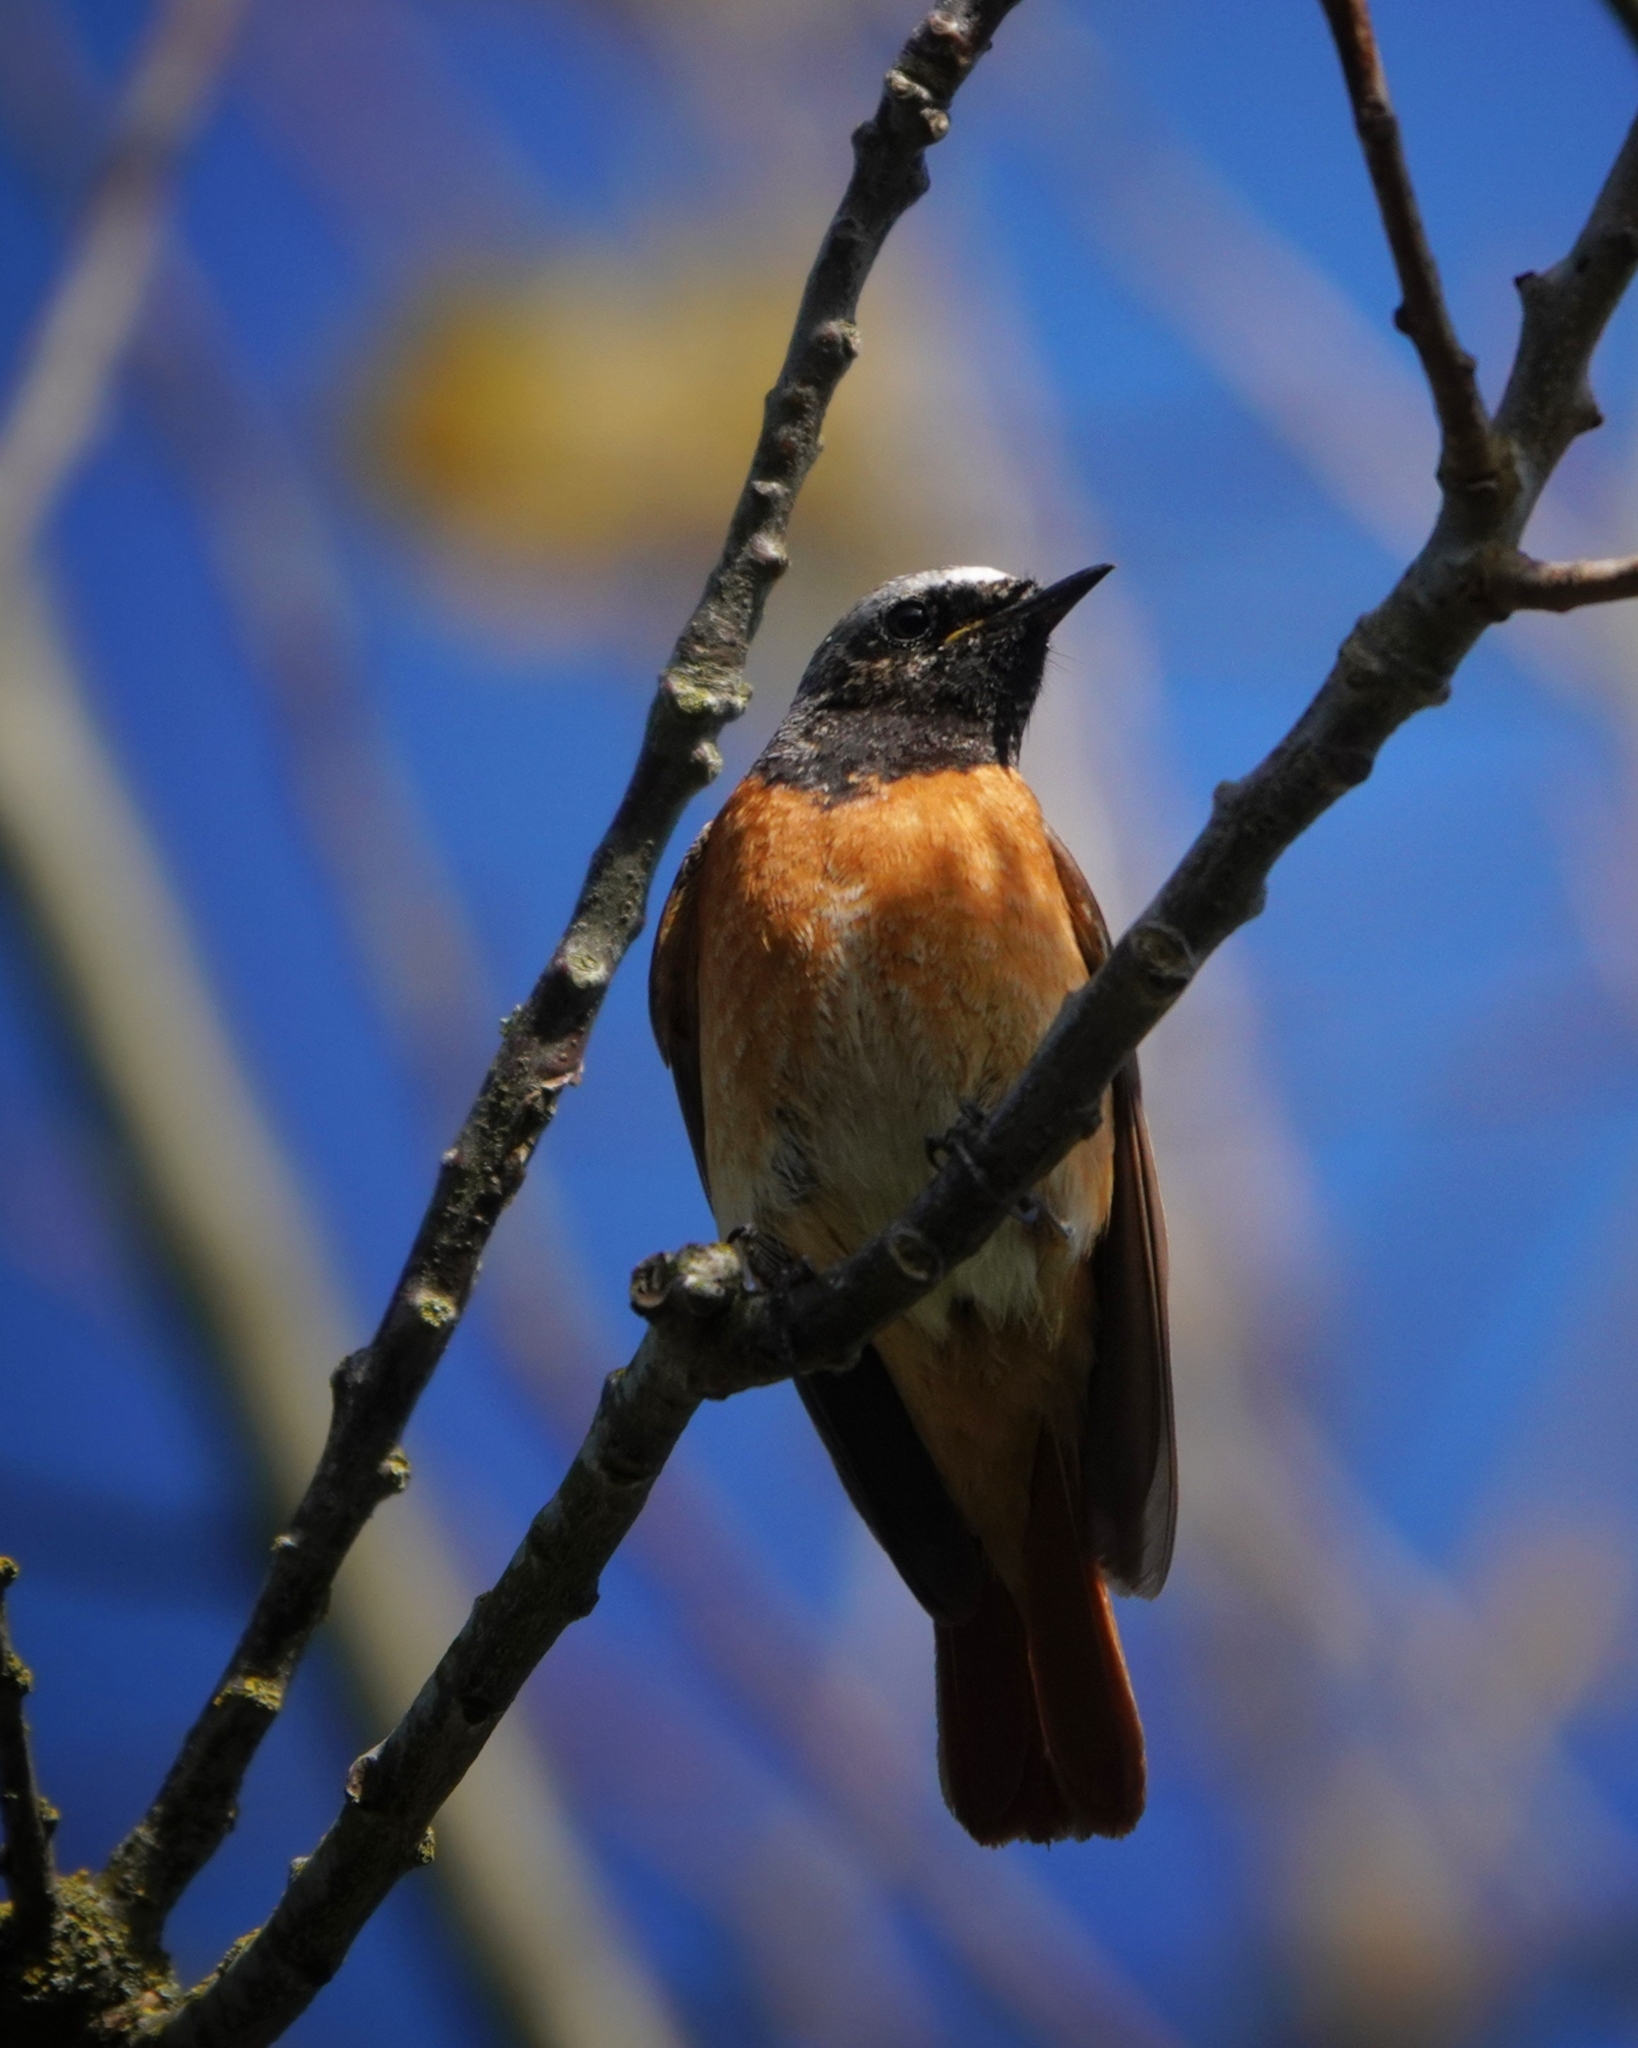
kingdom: Animalia
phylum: Chordata
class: Aves
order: Passeriformes
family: Muscicapidae
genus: Phoenicurus
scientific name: Phoenicurus phoenicurus
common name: Common redstart
